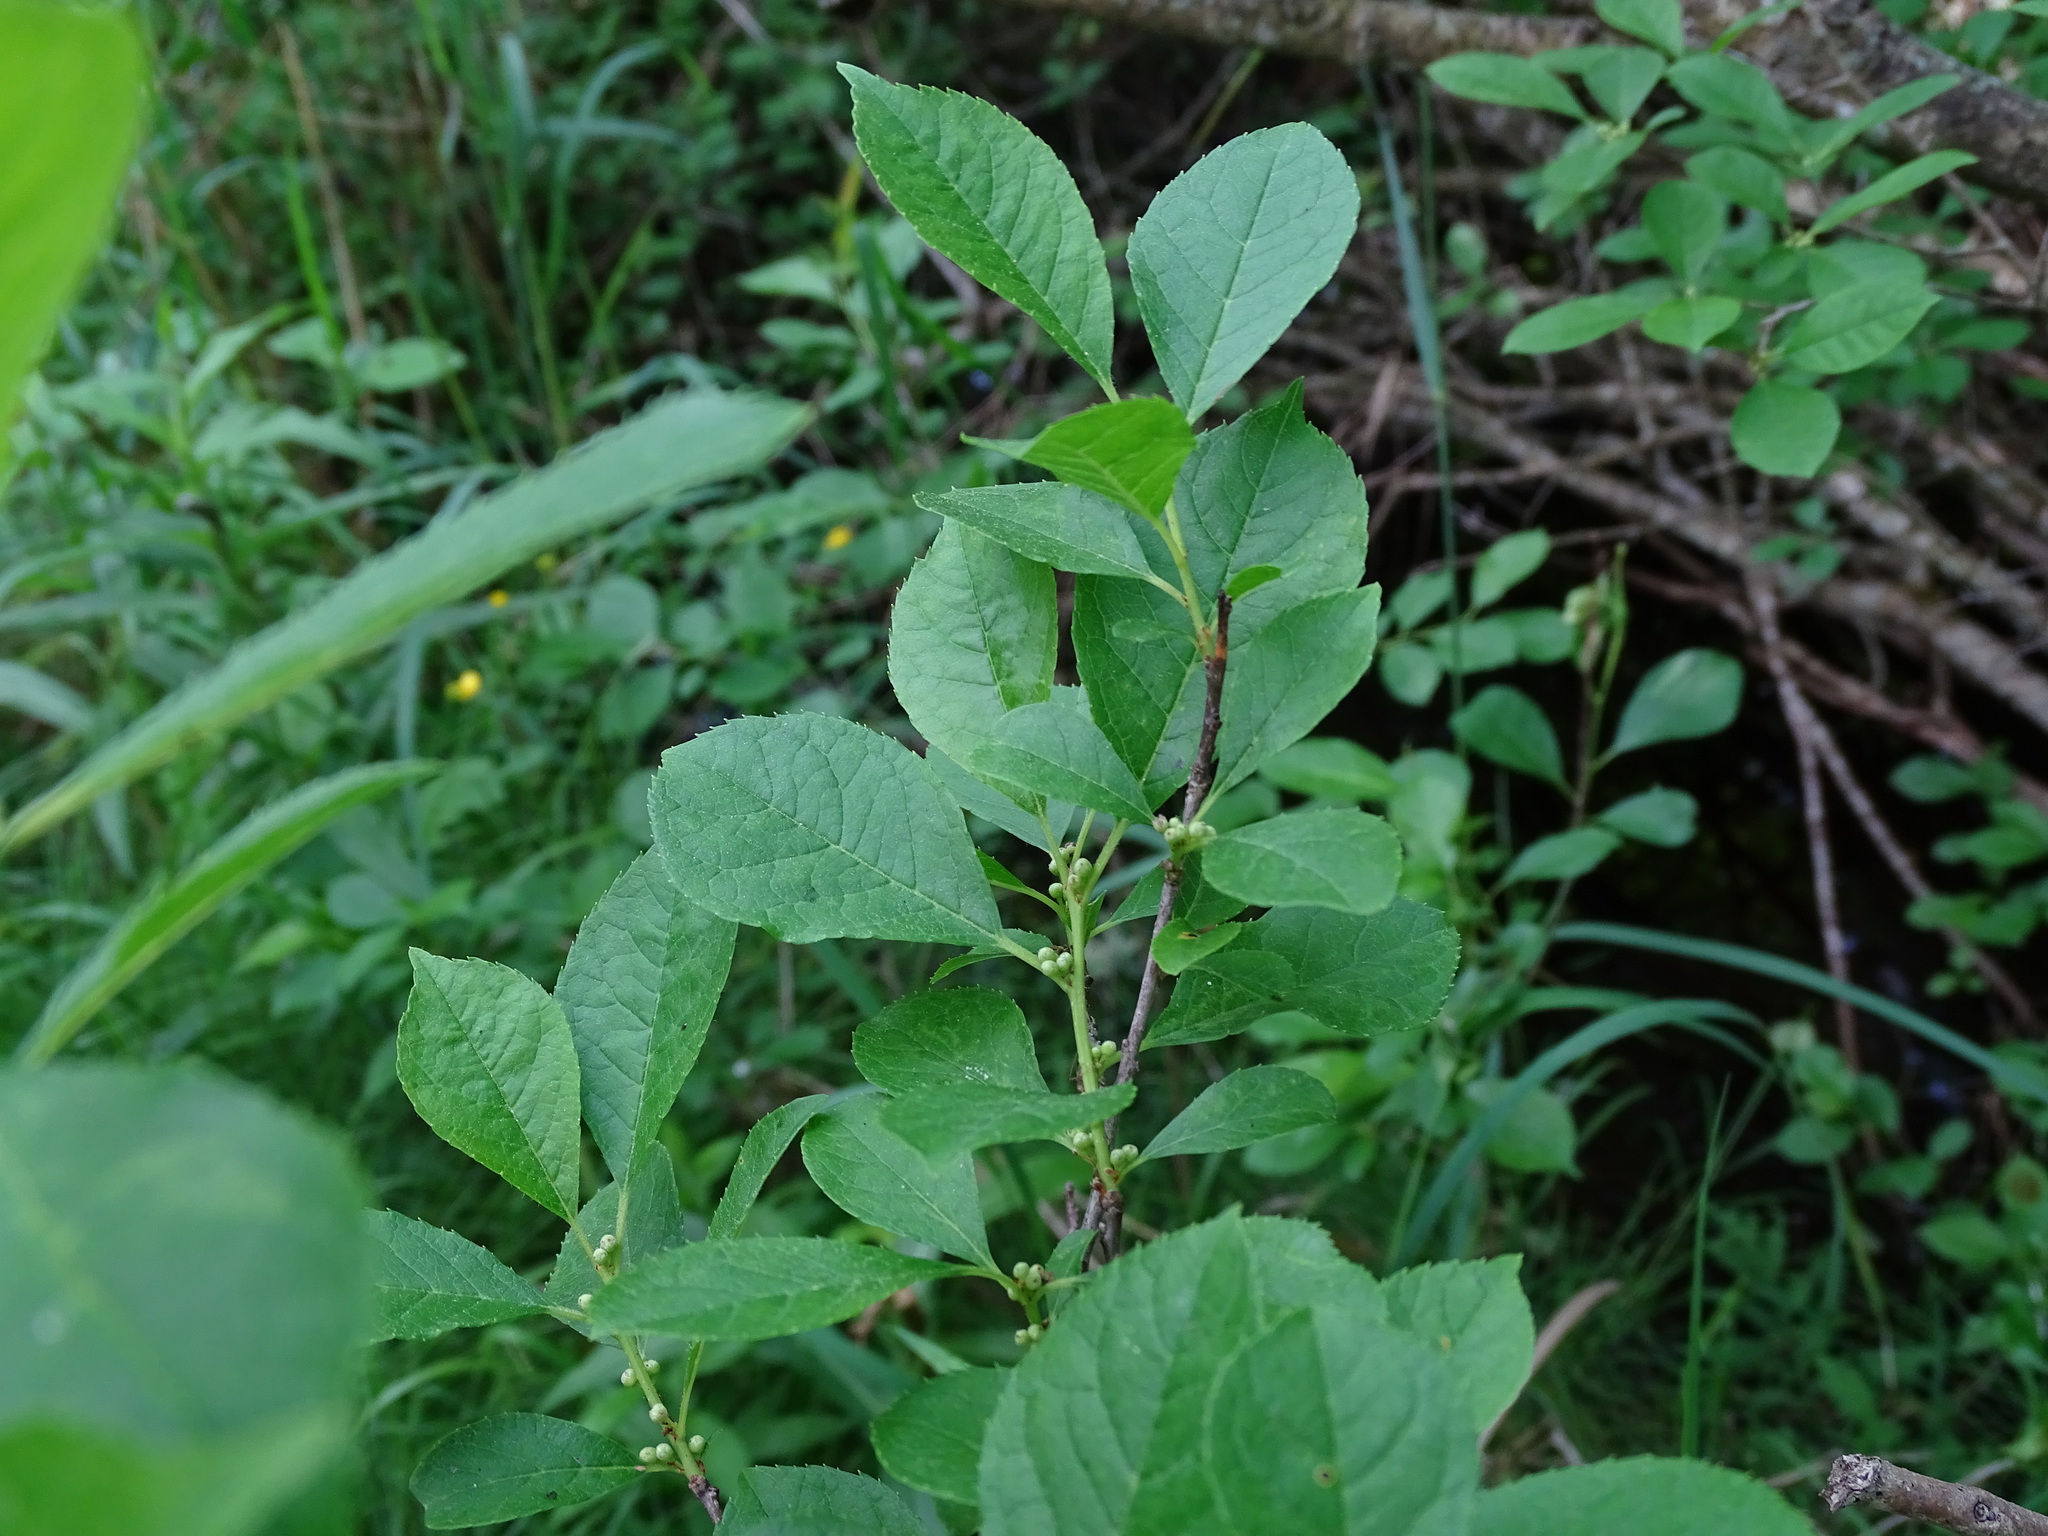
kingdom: Plantae
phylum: Tracheophyta
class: Magnoliopsida
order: Aquifoliales
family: Aquifoliaceae
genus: Ilex
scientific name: Ilex verticillata
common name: Virginia winterberry
